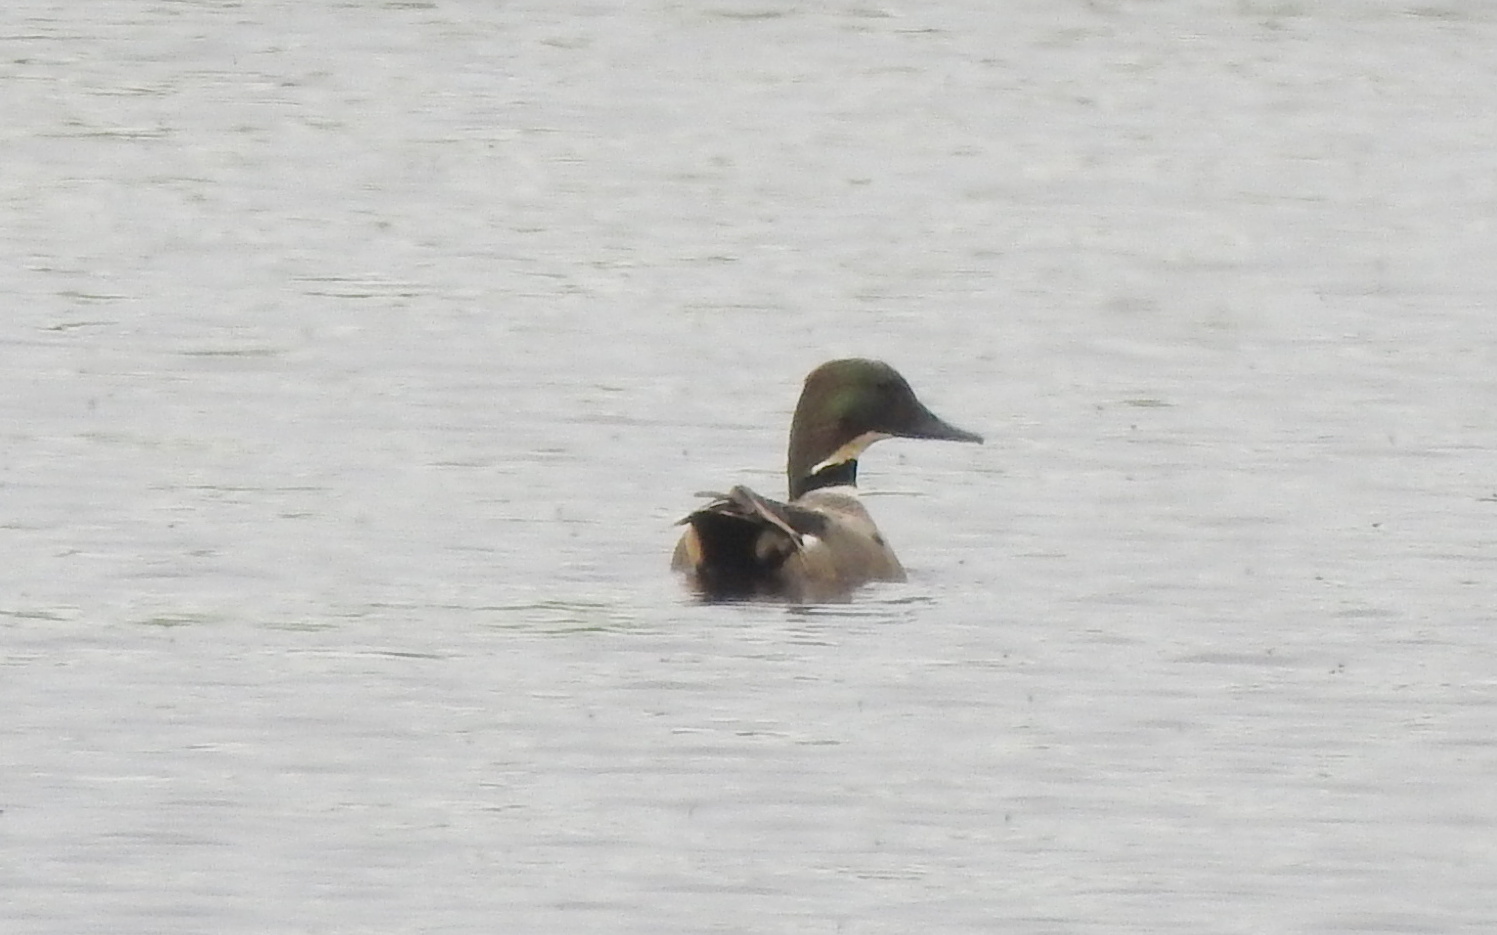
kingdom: Animalia
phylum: Chordata
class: Aves
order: Anseriformes
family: Anatidae
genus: Mareca
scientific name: Mareca falcata
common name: Falcated duck
